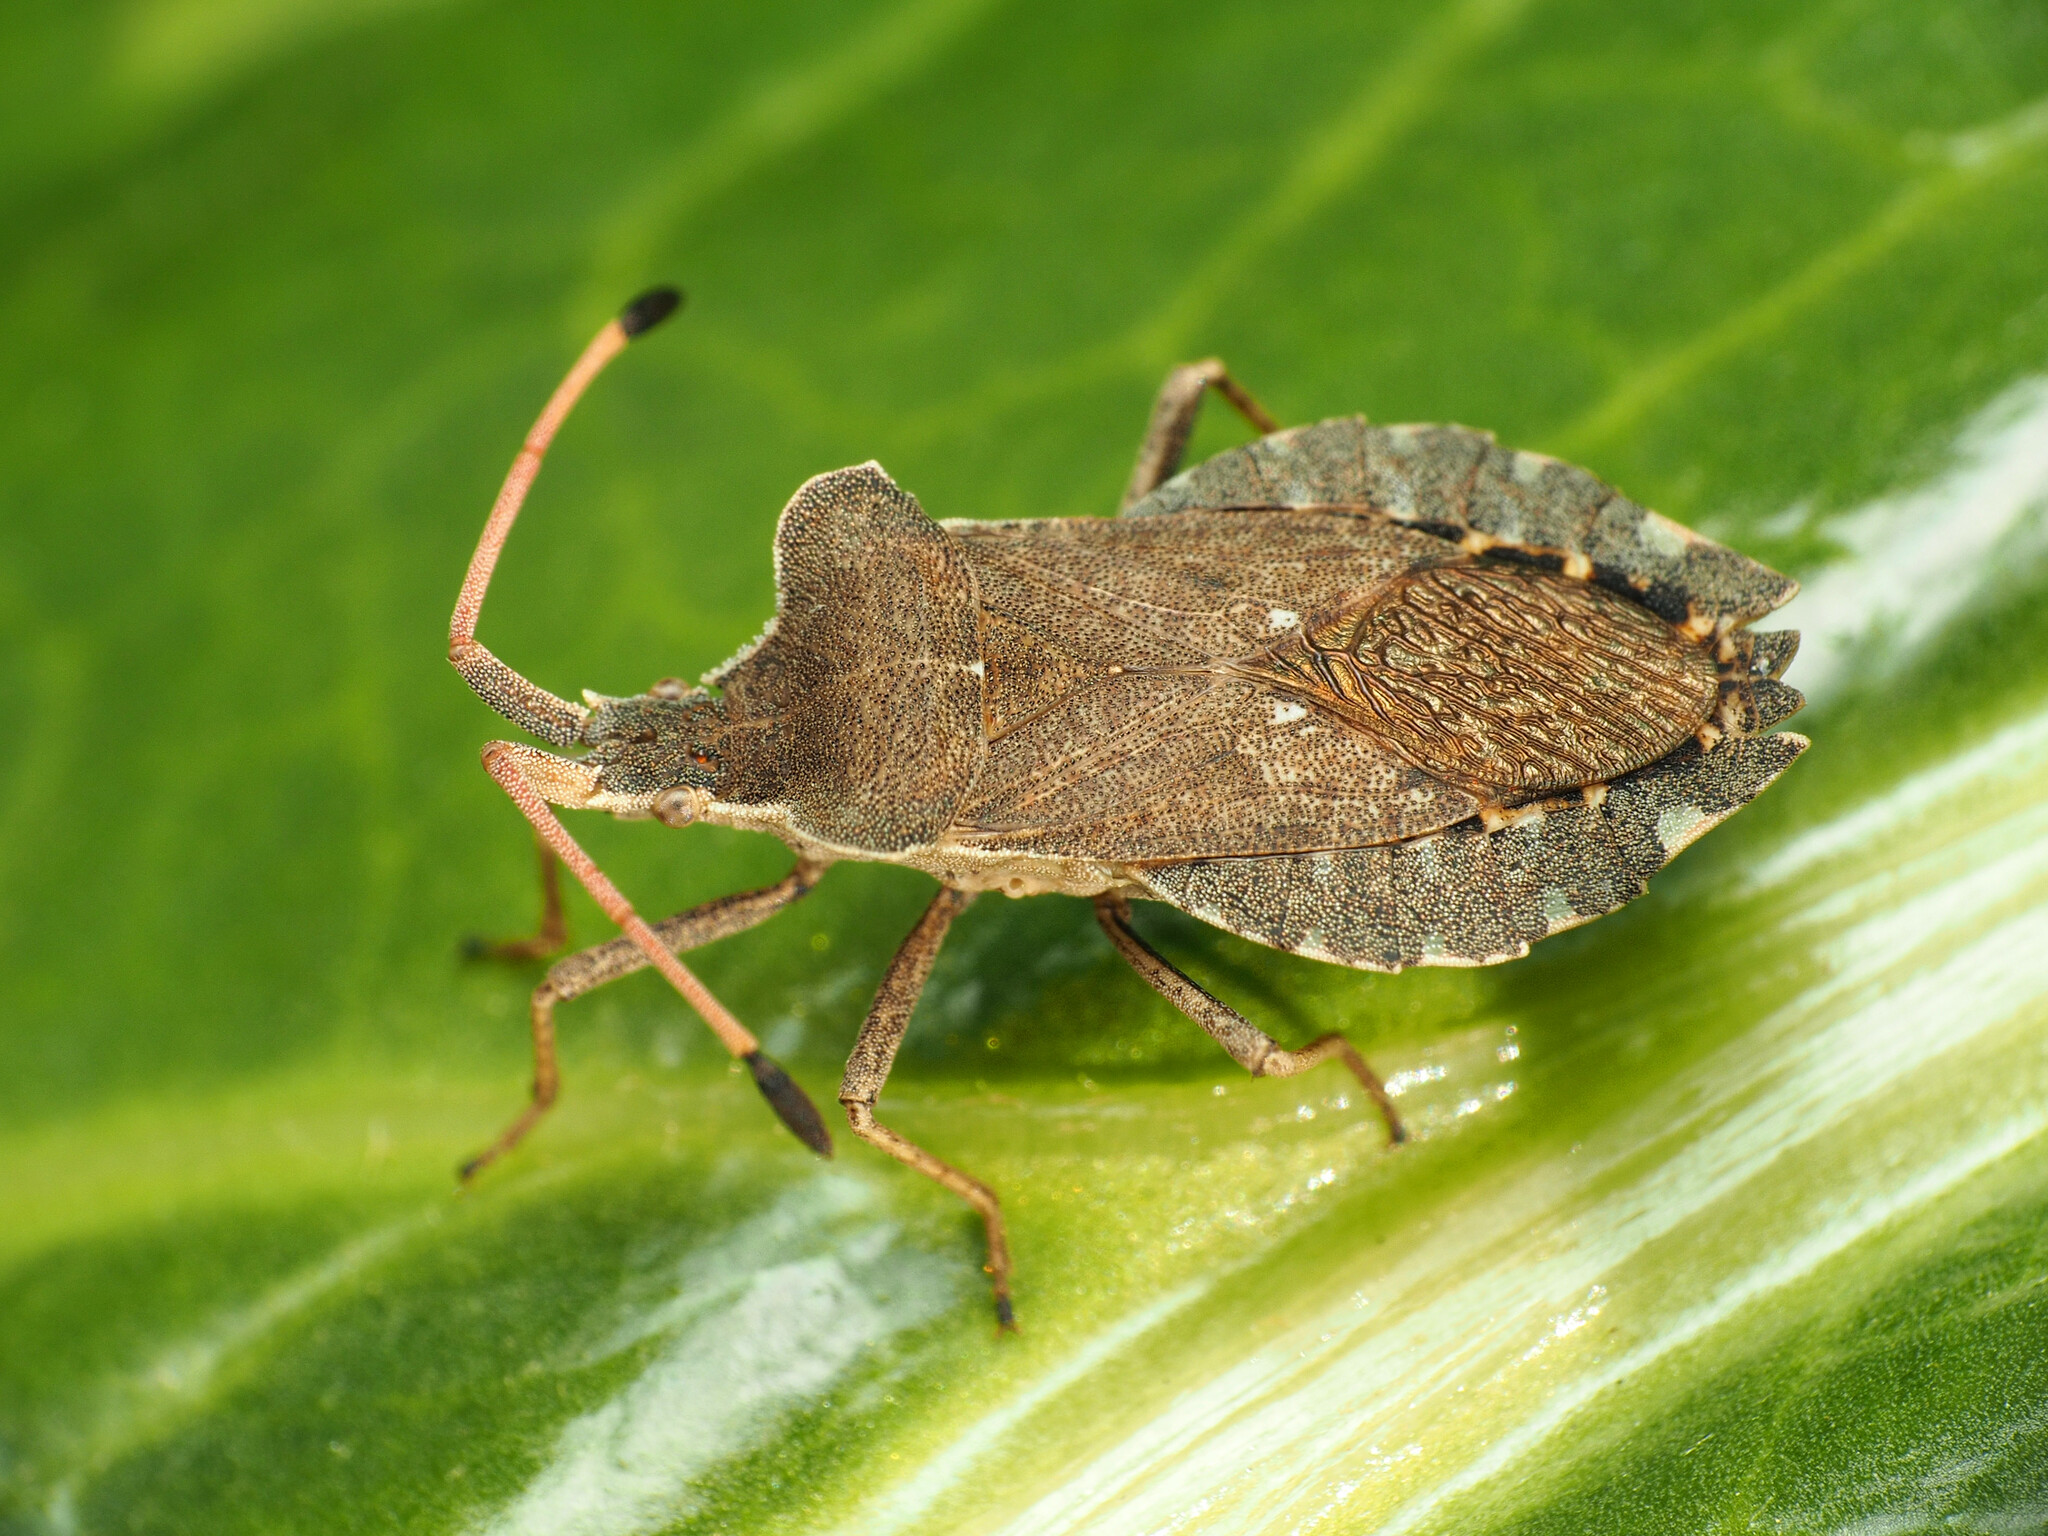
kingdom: Animalia
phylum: Arthropoda
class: Insecta
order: Hemiptera
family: Coreidae
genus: Enoplops
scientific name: Enoplops scapha
